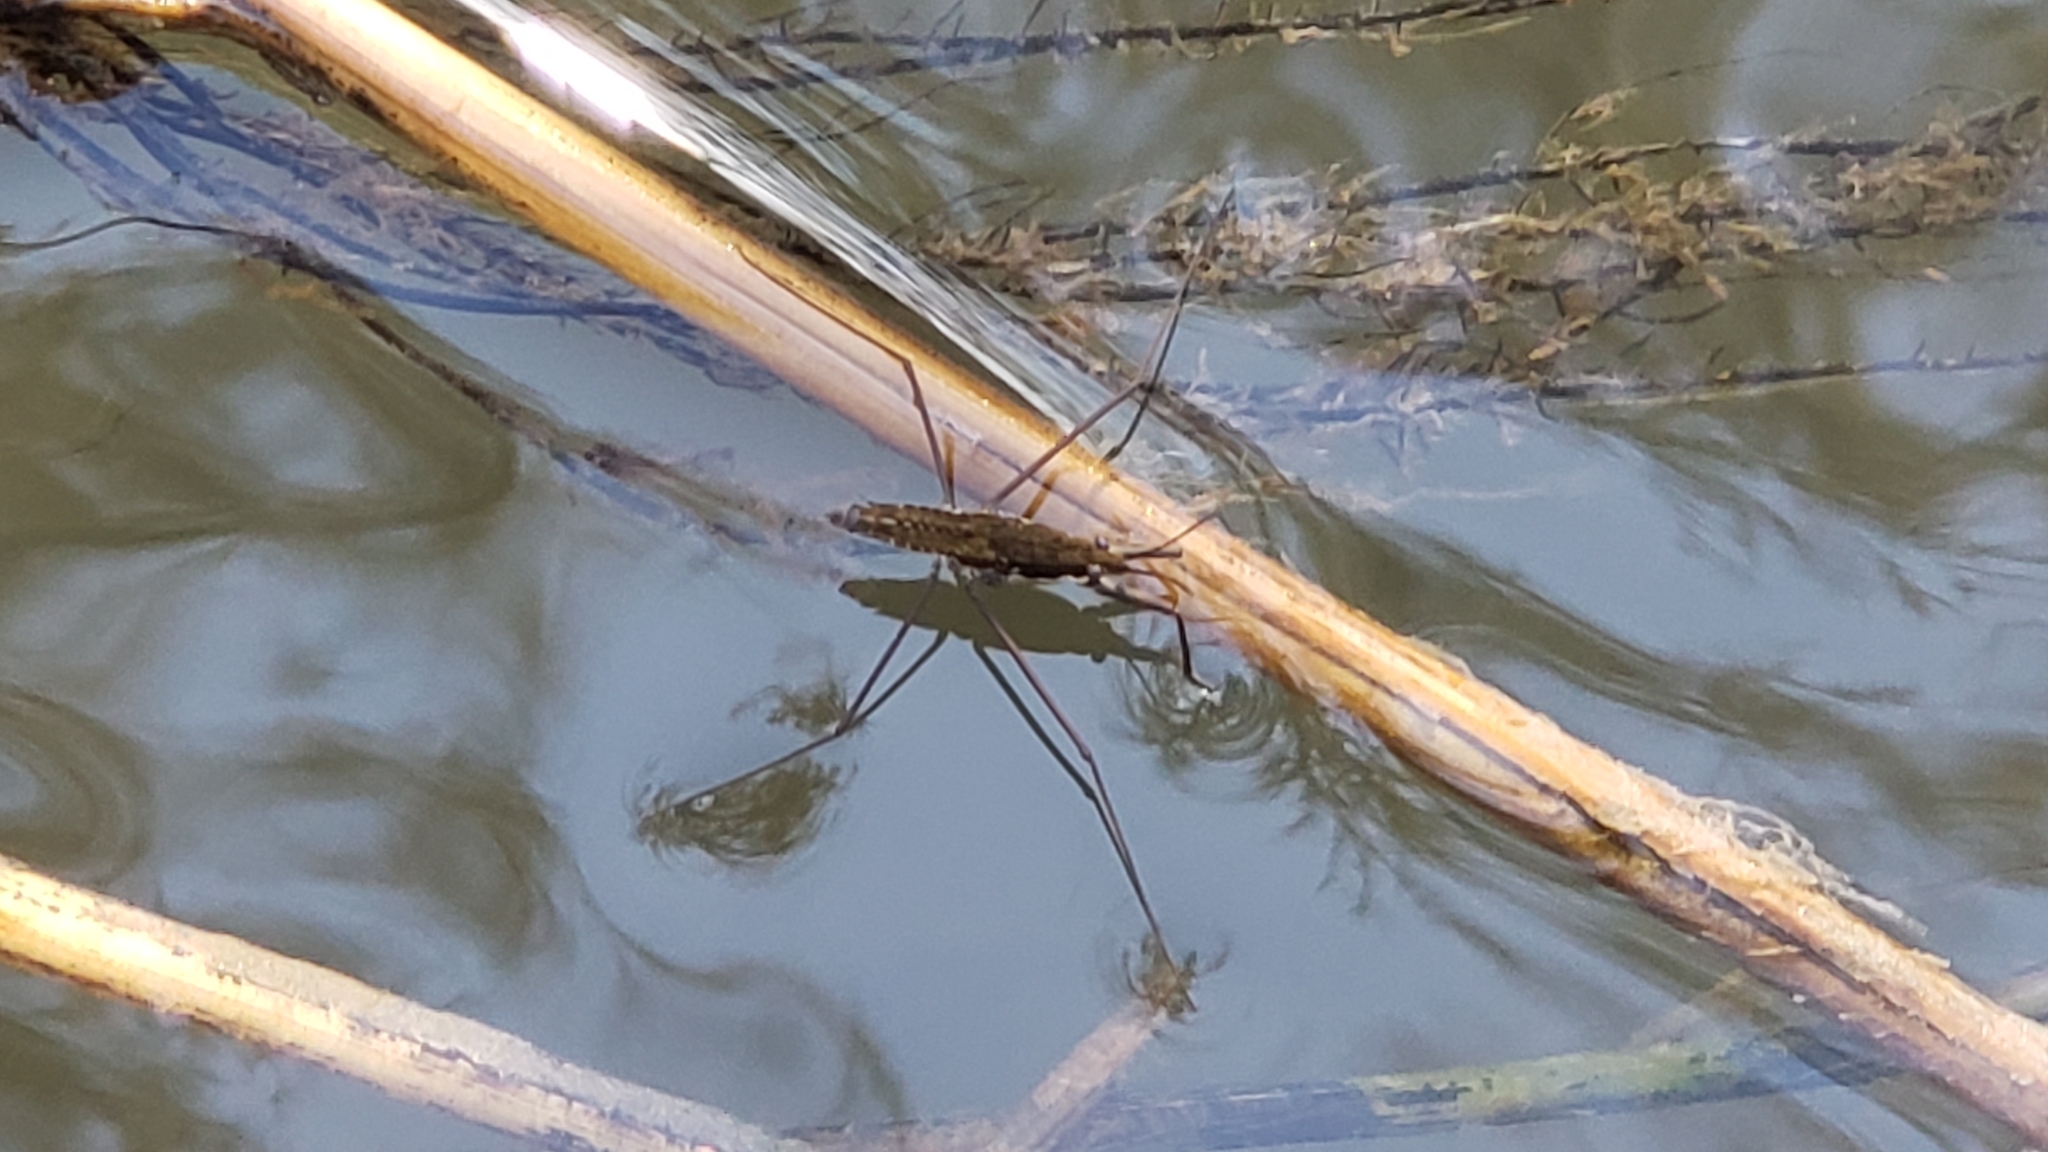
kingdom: Animalia
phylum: Arthropoda
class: Insecta
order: Hemiptera
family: Gerridae
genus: Aquarius
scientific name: Aquarius remigis
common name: Common water strider
